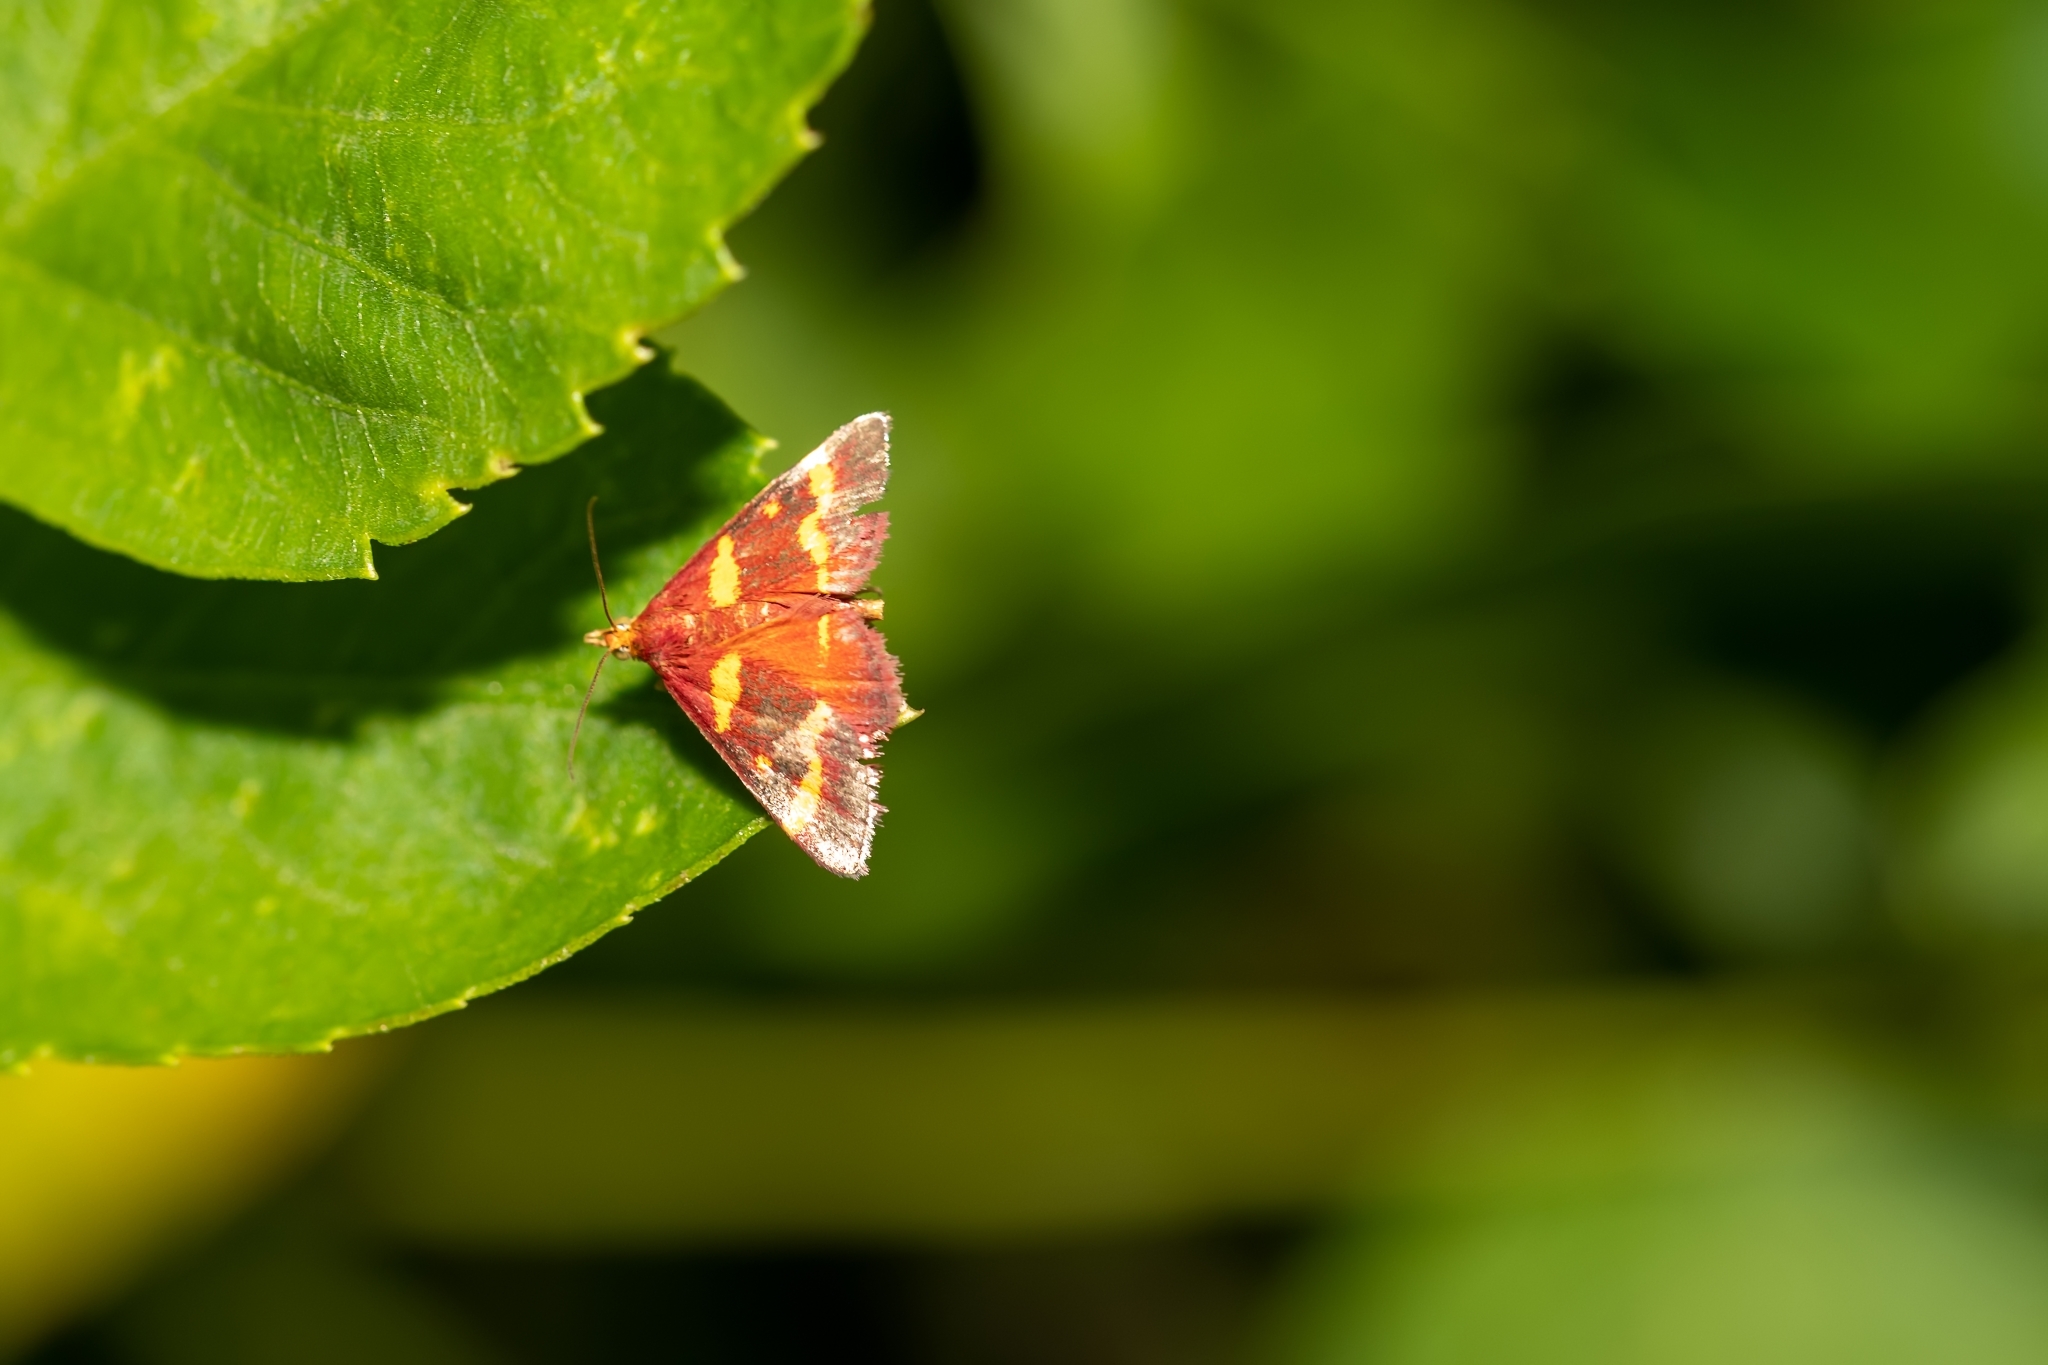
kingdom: Animalia
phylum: Arthropoda
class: Insecta
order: Lepidoptera
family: Crambidae
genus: Pyrausta
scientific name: Pyrausta tyralis
